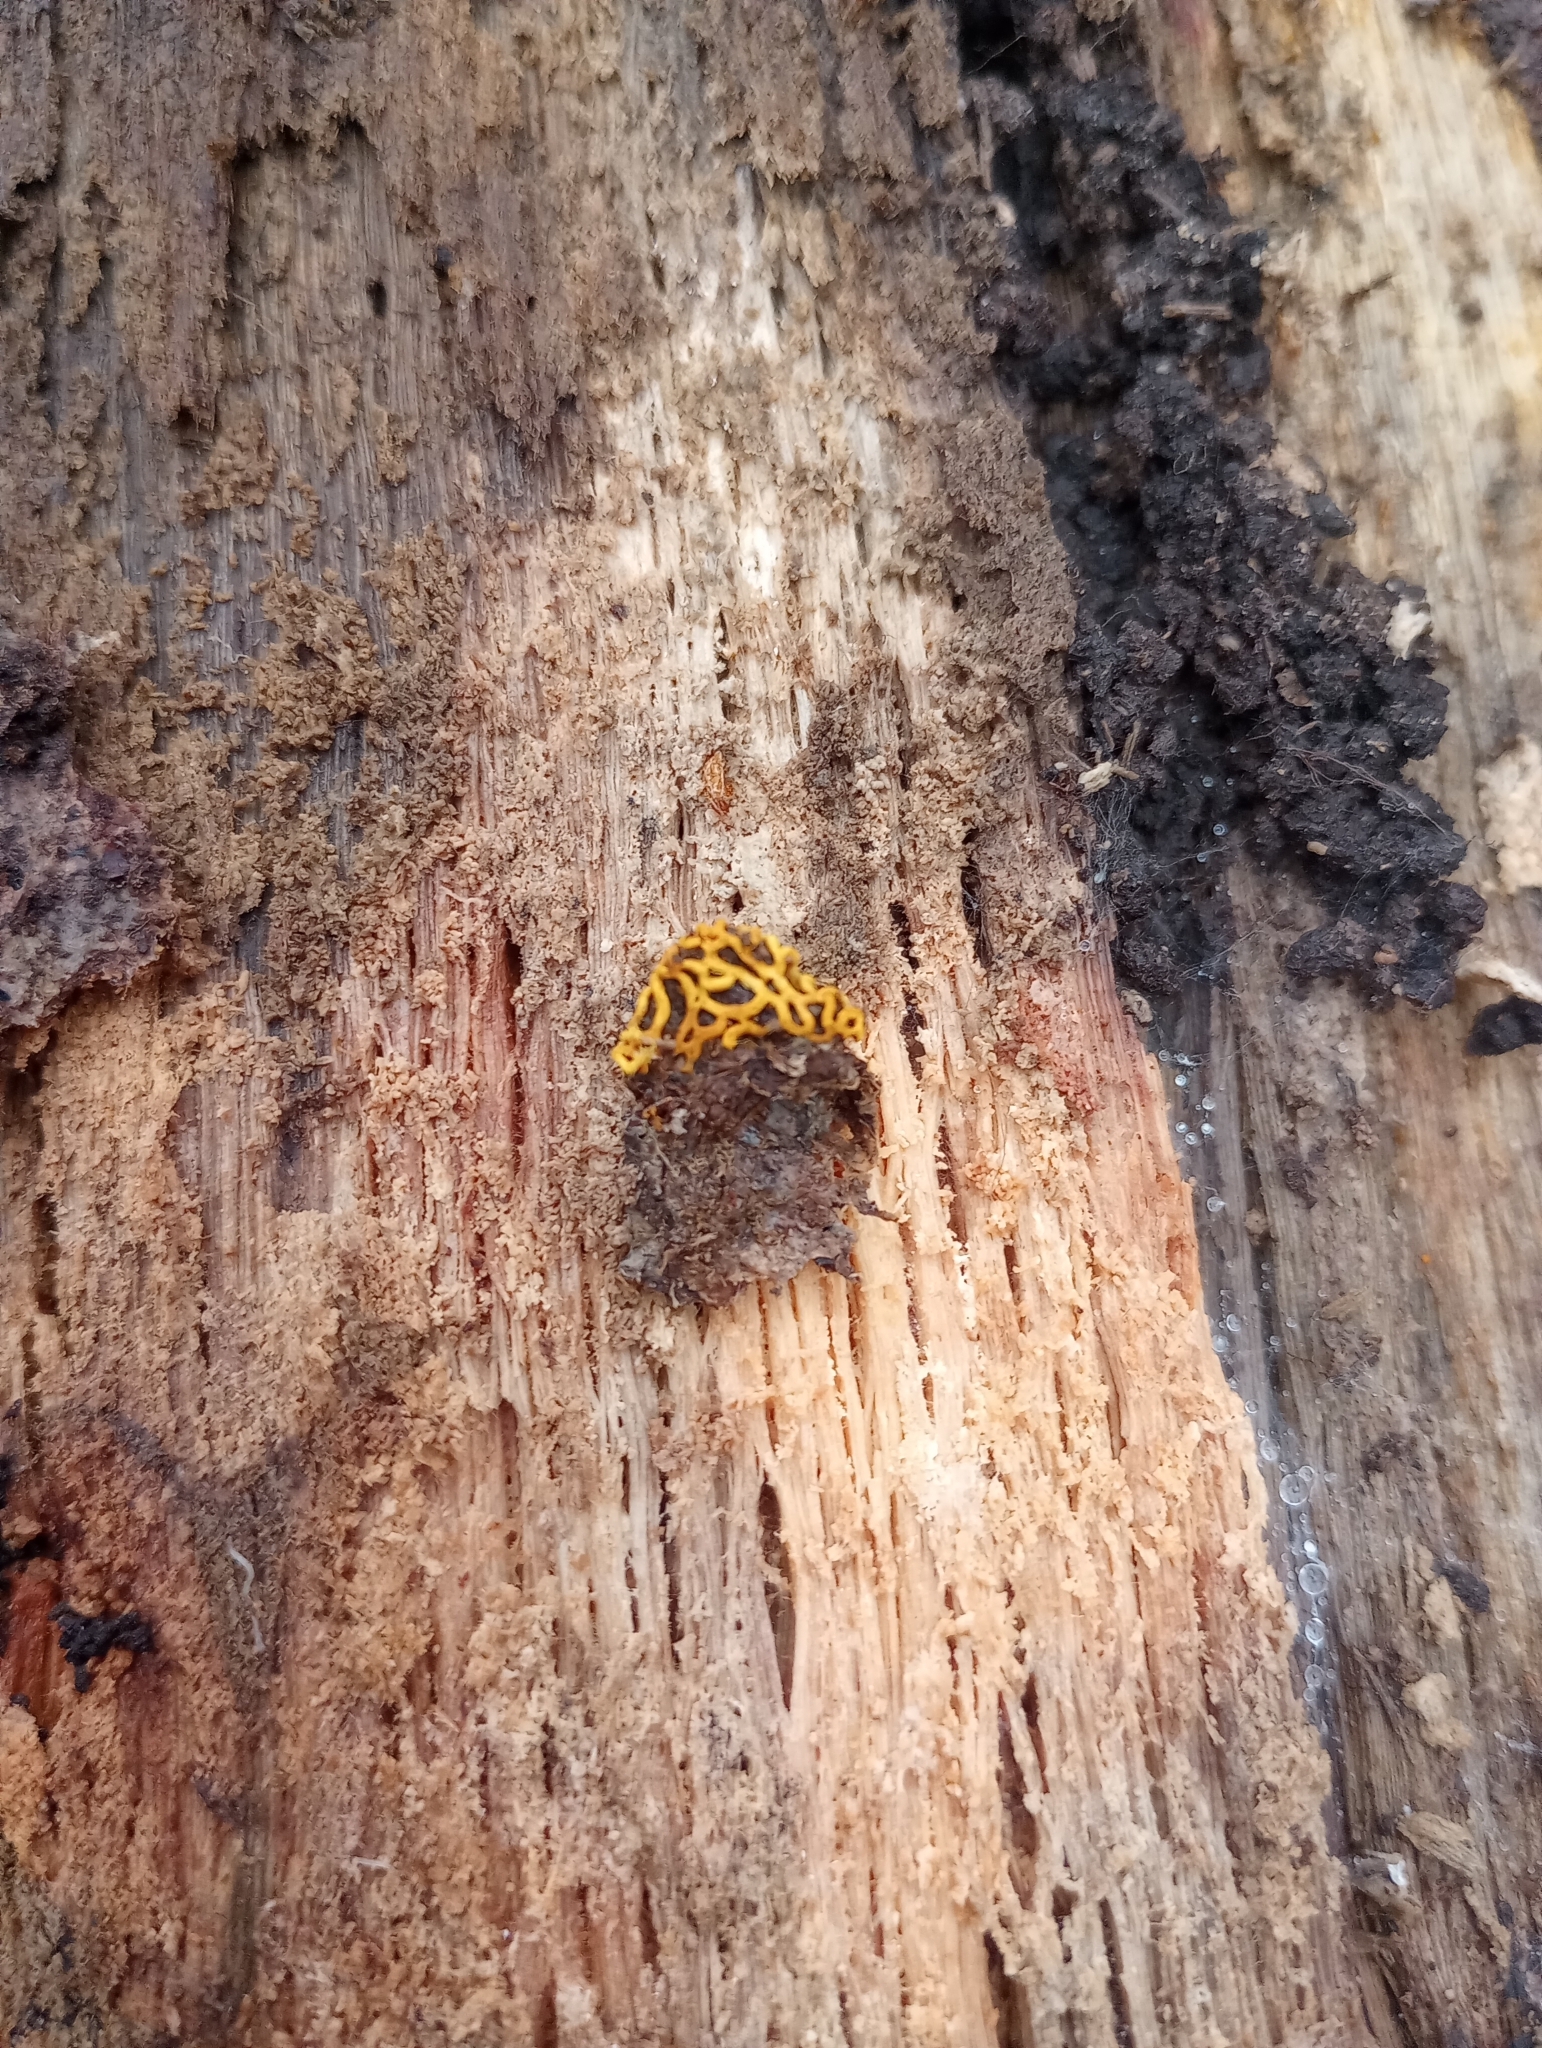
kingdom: Protozoa
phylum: Mycetozoa
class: Myxomycetes
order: Trichiales
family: Arcyriaceae
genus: Hemitrichia
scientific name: Hemitrichia serpula
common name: Pretzel slime mold
